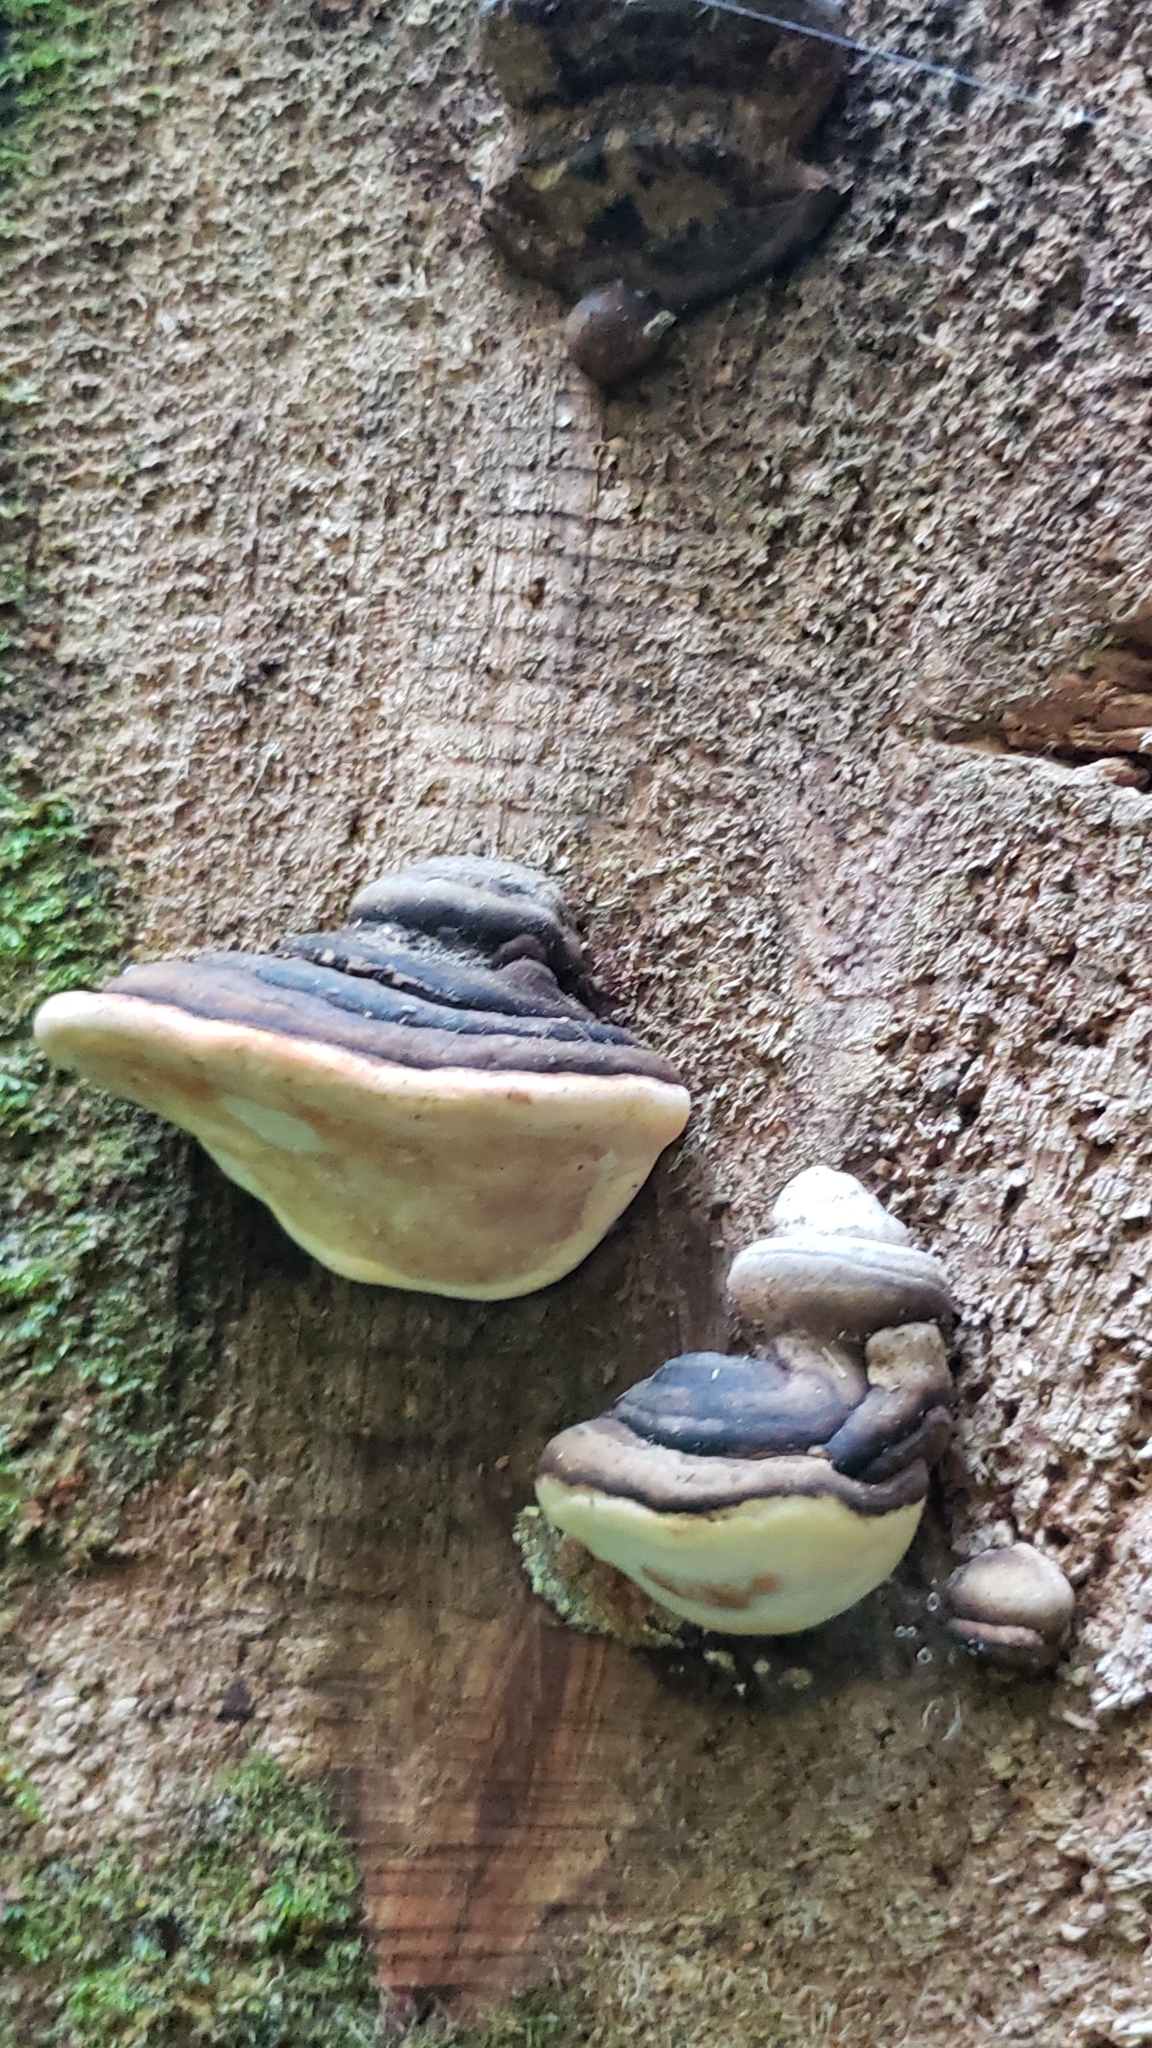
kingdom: Fungi
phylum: Basidiomycota
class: Agaricomycetes
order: Polyporales
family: Fomitopsidaceae
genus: Fomitopsis
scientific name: Fomitopsis ochracea
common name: American brown fomitopsis
